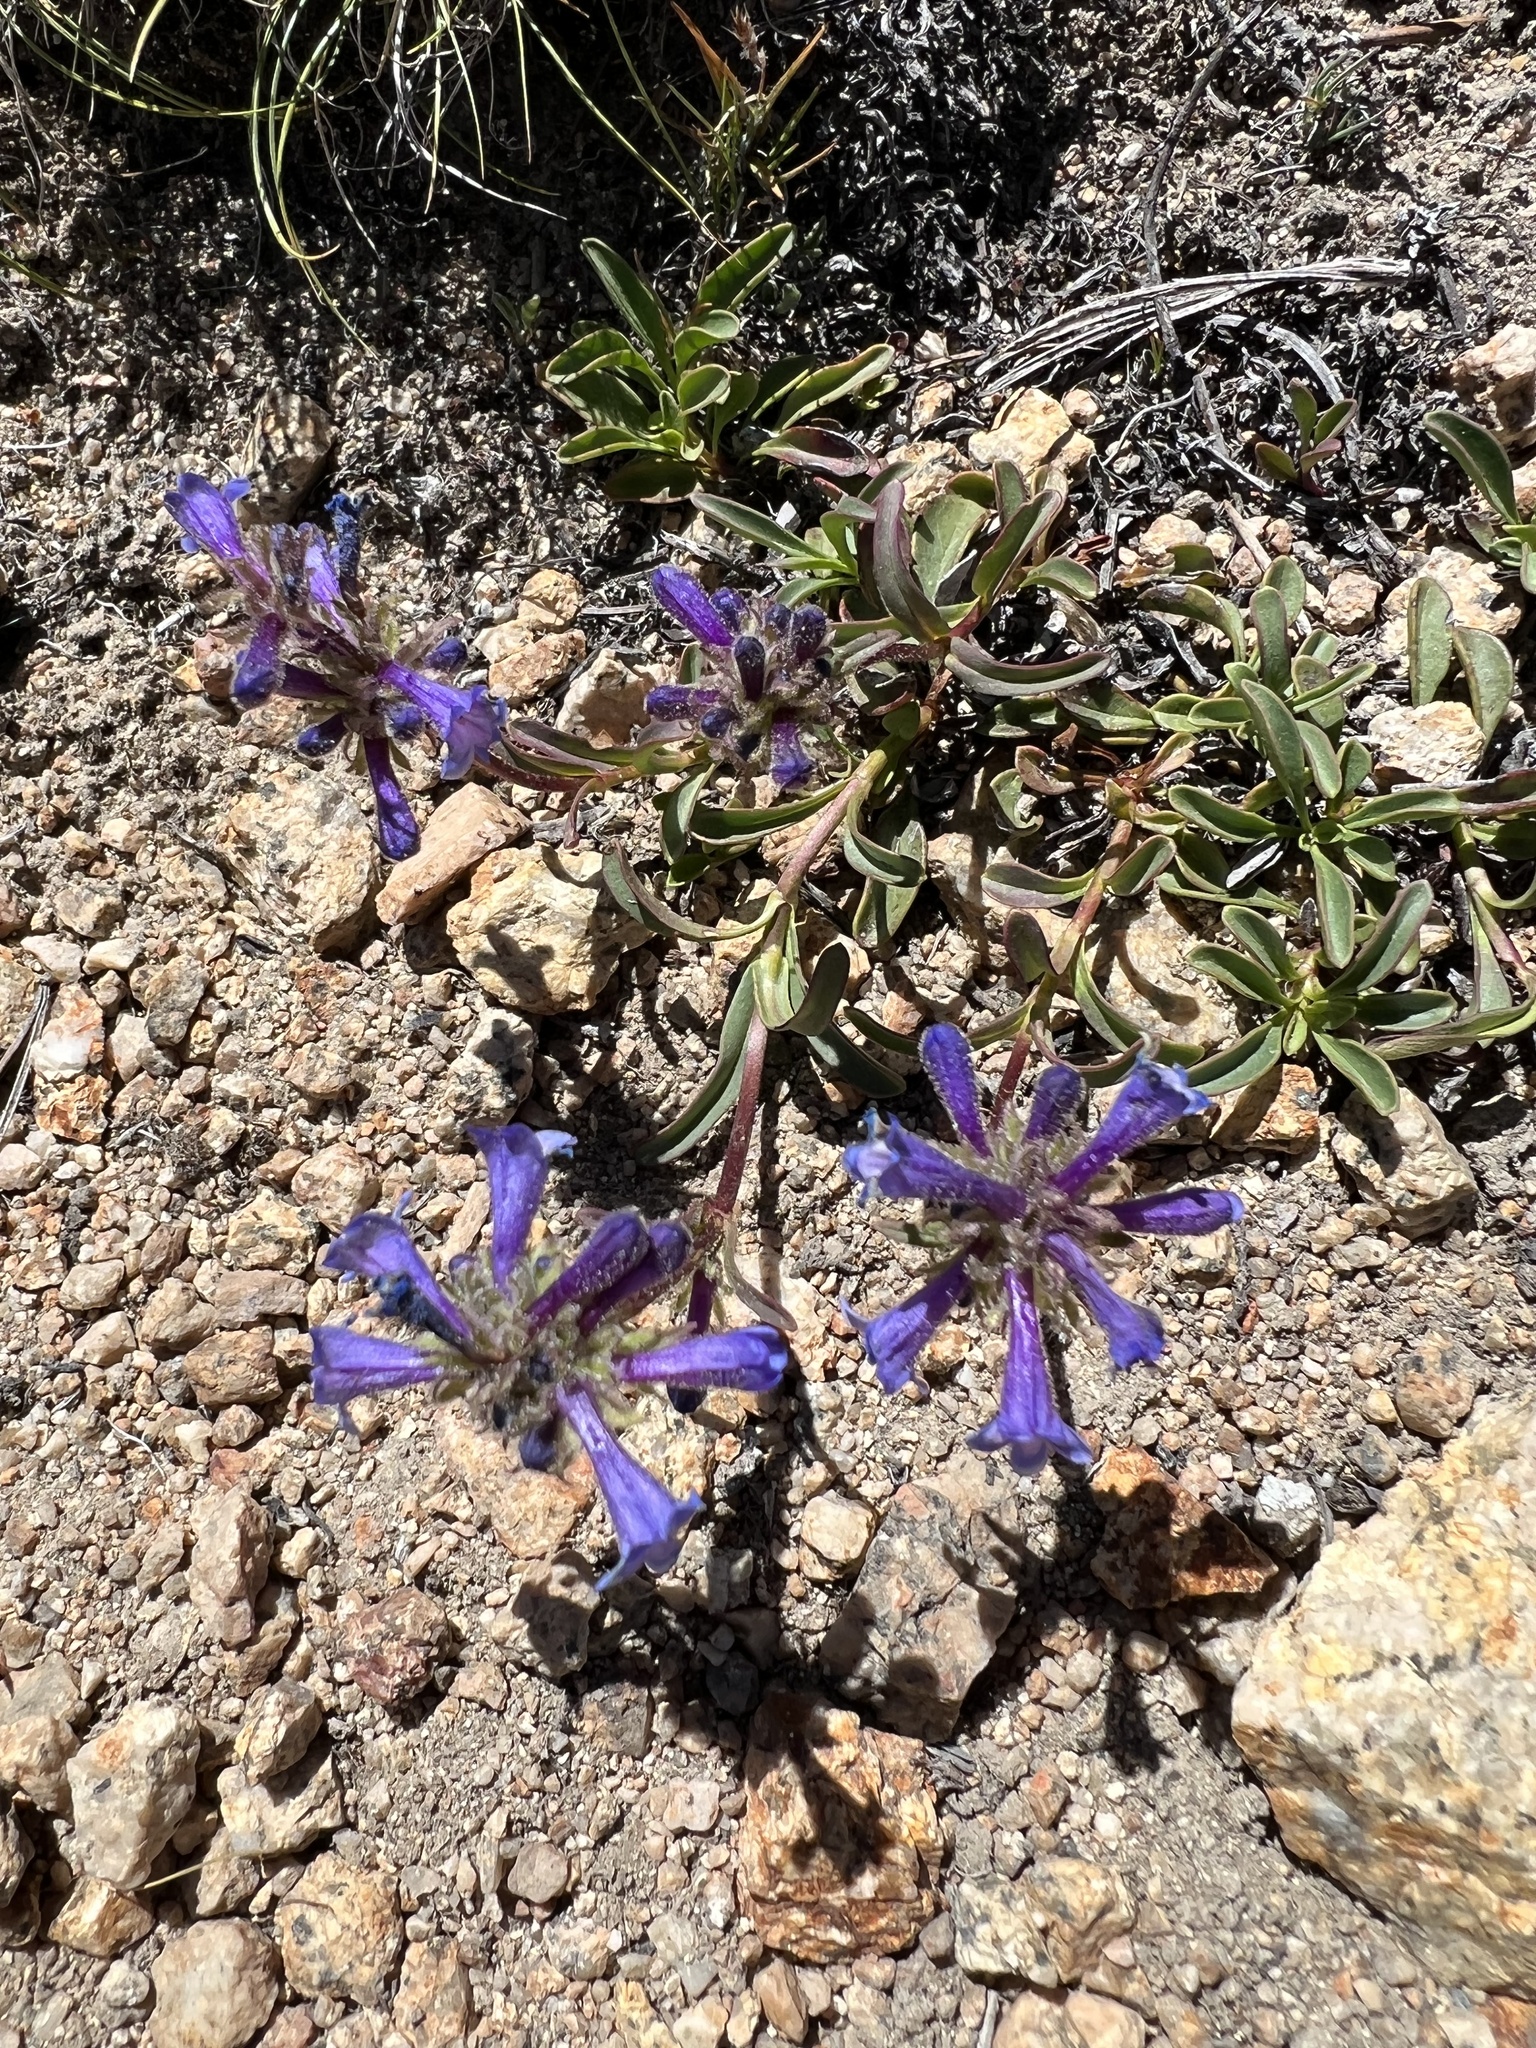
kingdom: Plantae
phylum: Tracheophyta
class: Magnoliopsida
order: Lamiales
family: Plantaginaceae
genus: Penstemon
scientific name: Penstemon heterodoxus
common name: Sierran penstemon
